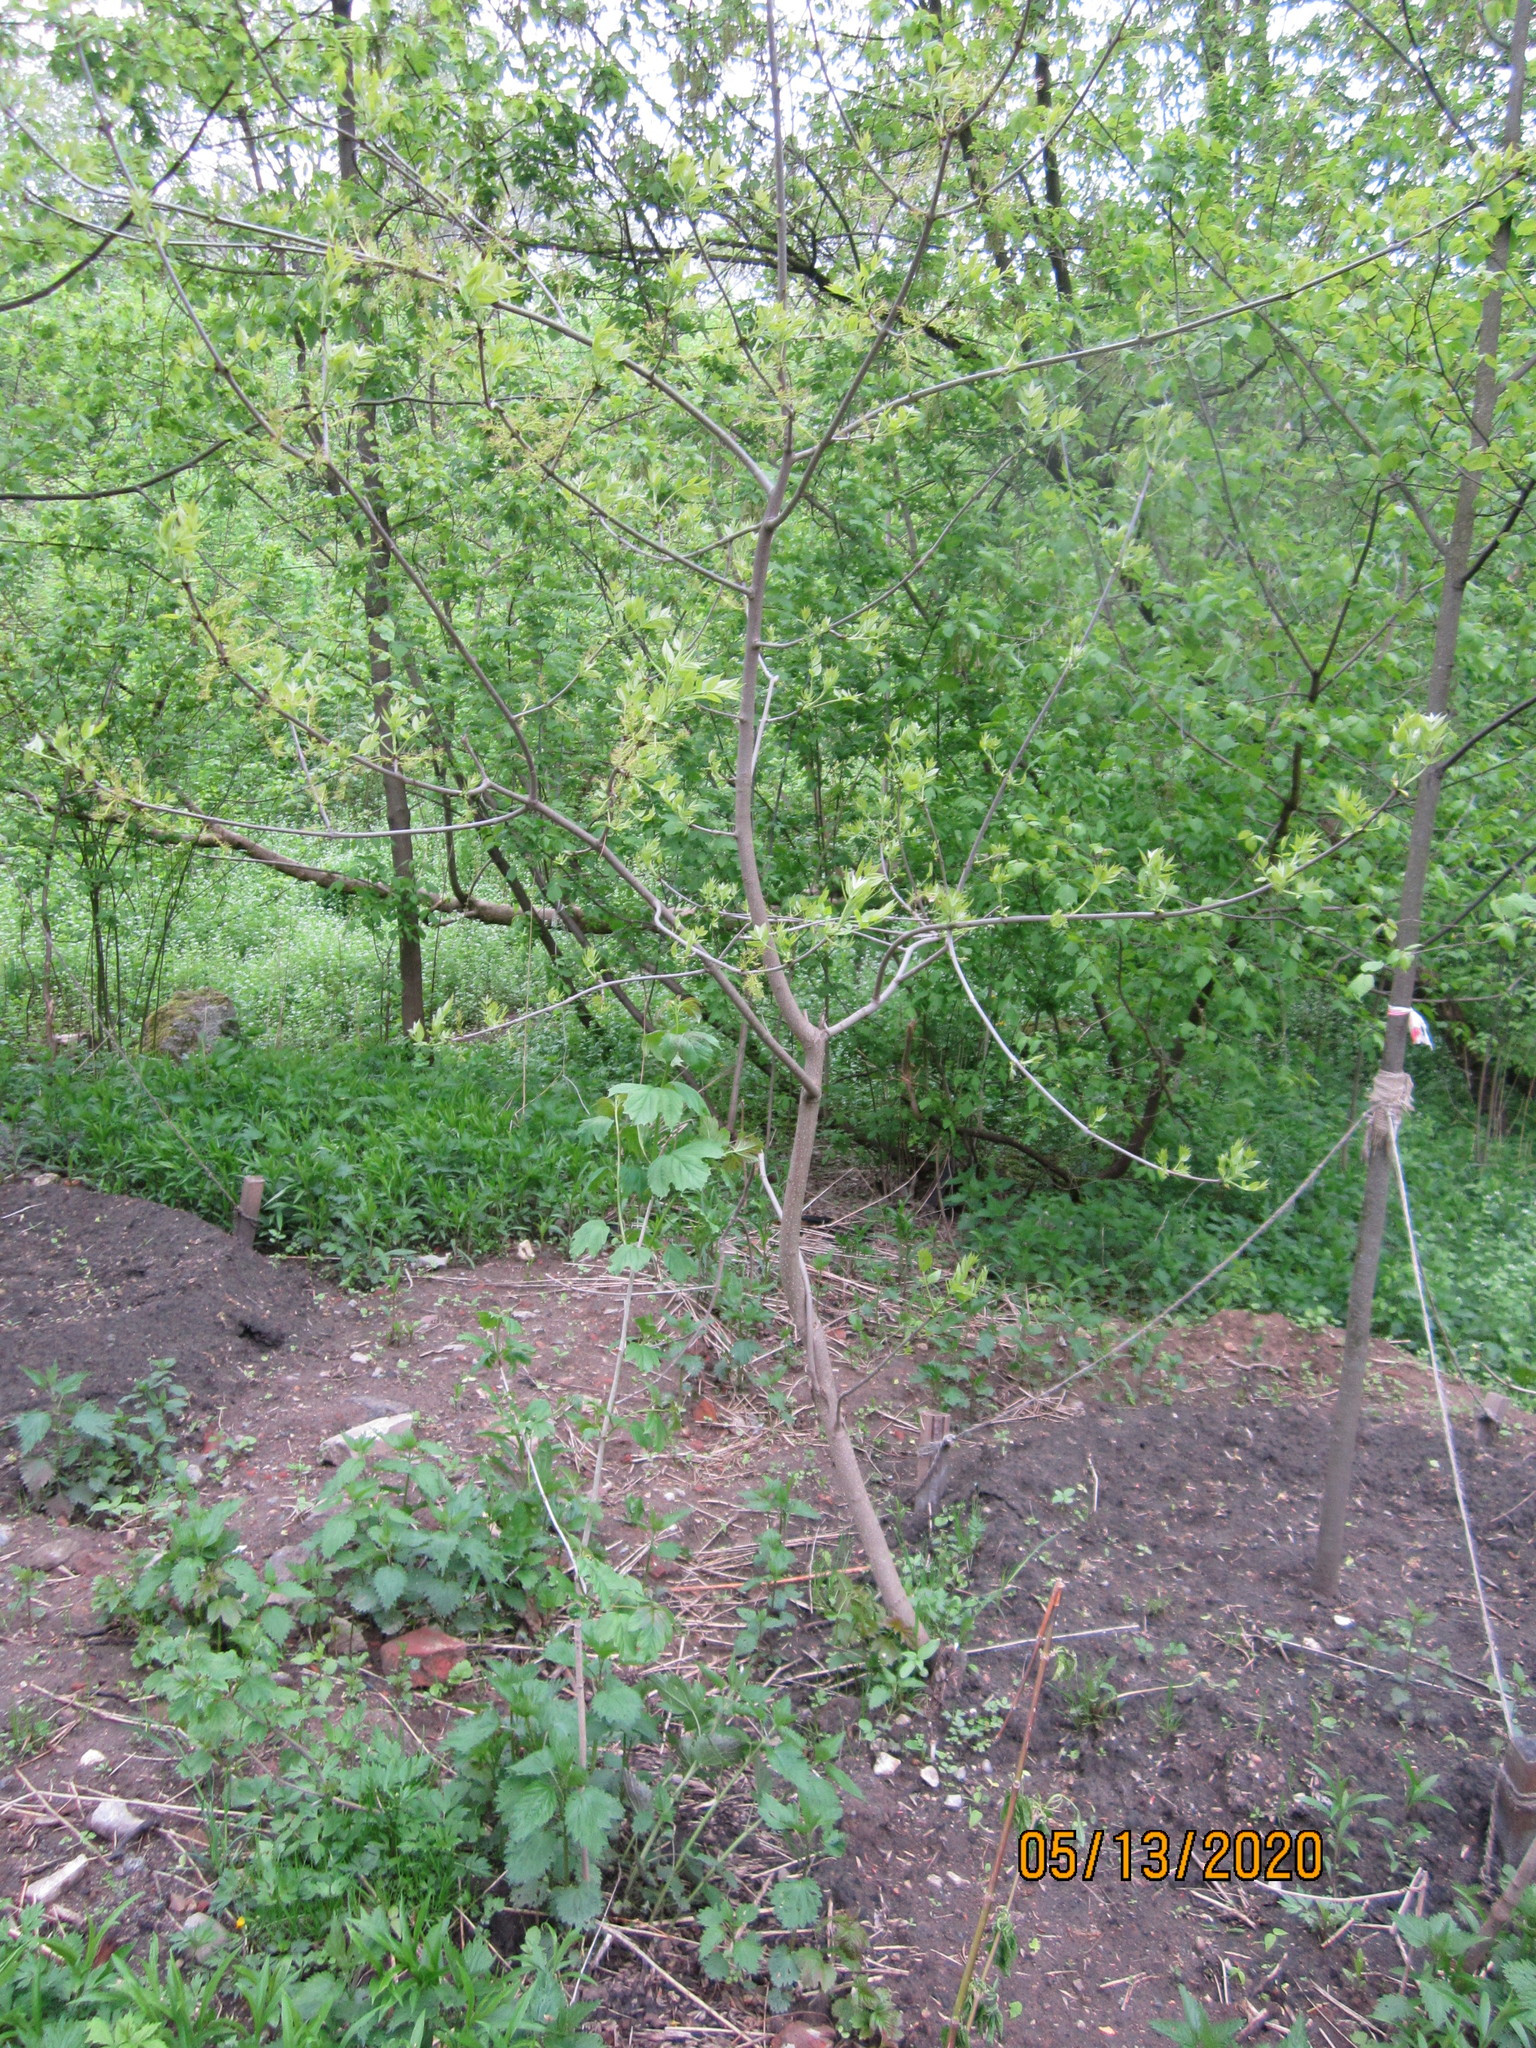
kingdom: Plantae
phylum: Tracheophyta
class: Magnoliopsida
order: Lamiales
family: Oleaceae
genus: Fraxinus
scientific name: Fraxinus pennsylvanica
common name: Green ash
